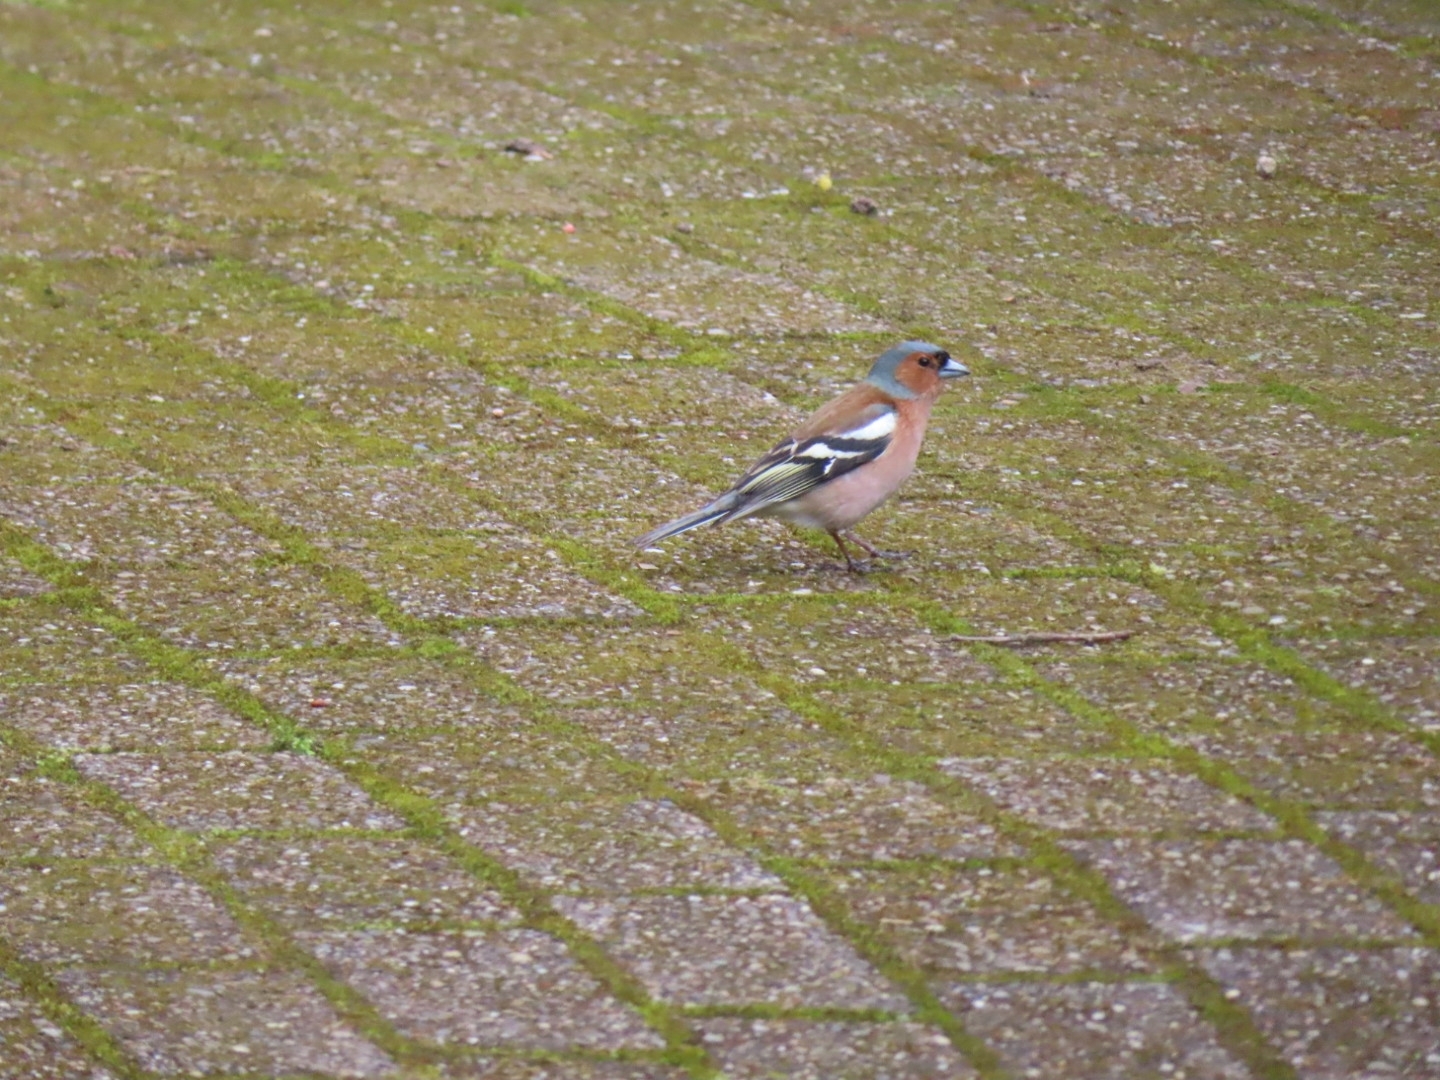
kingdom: Animalia
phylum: Chordata
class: Aves
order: Passeriformes
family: Fringillidae
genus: Fringilla
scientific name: Fringilla coelebs
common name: Common chaffinch
